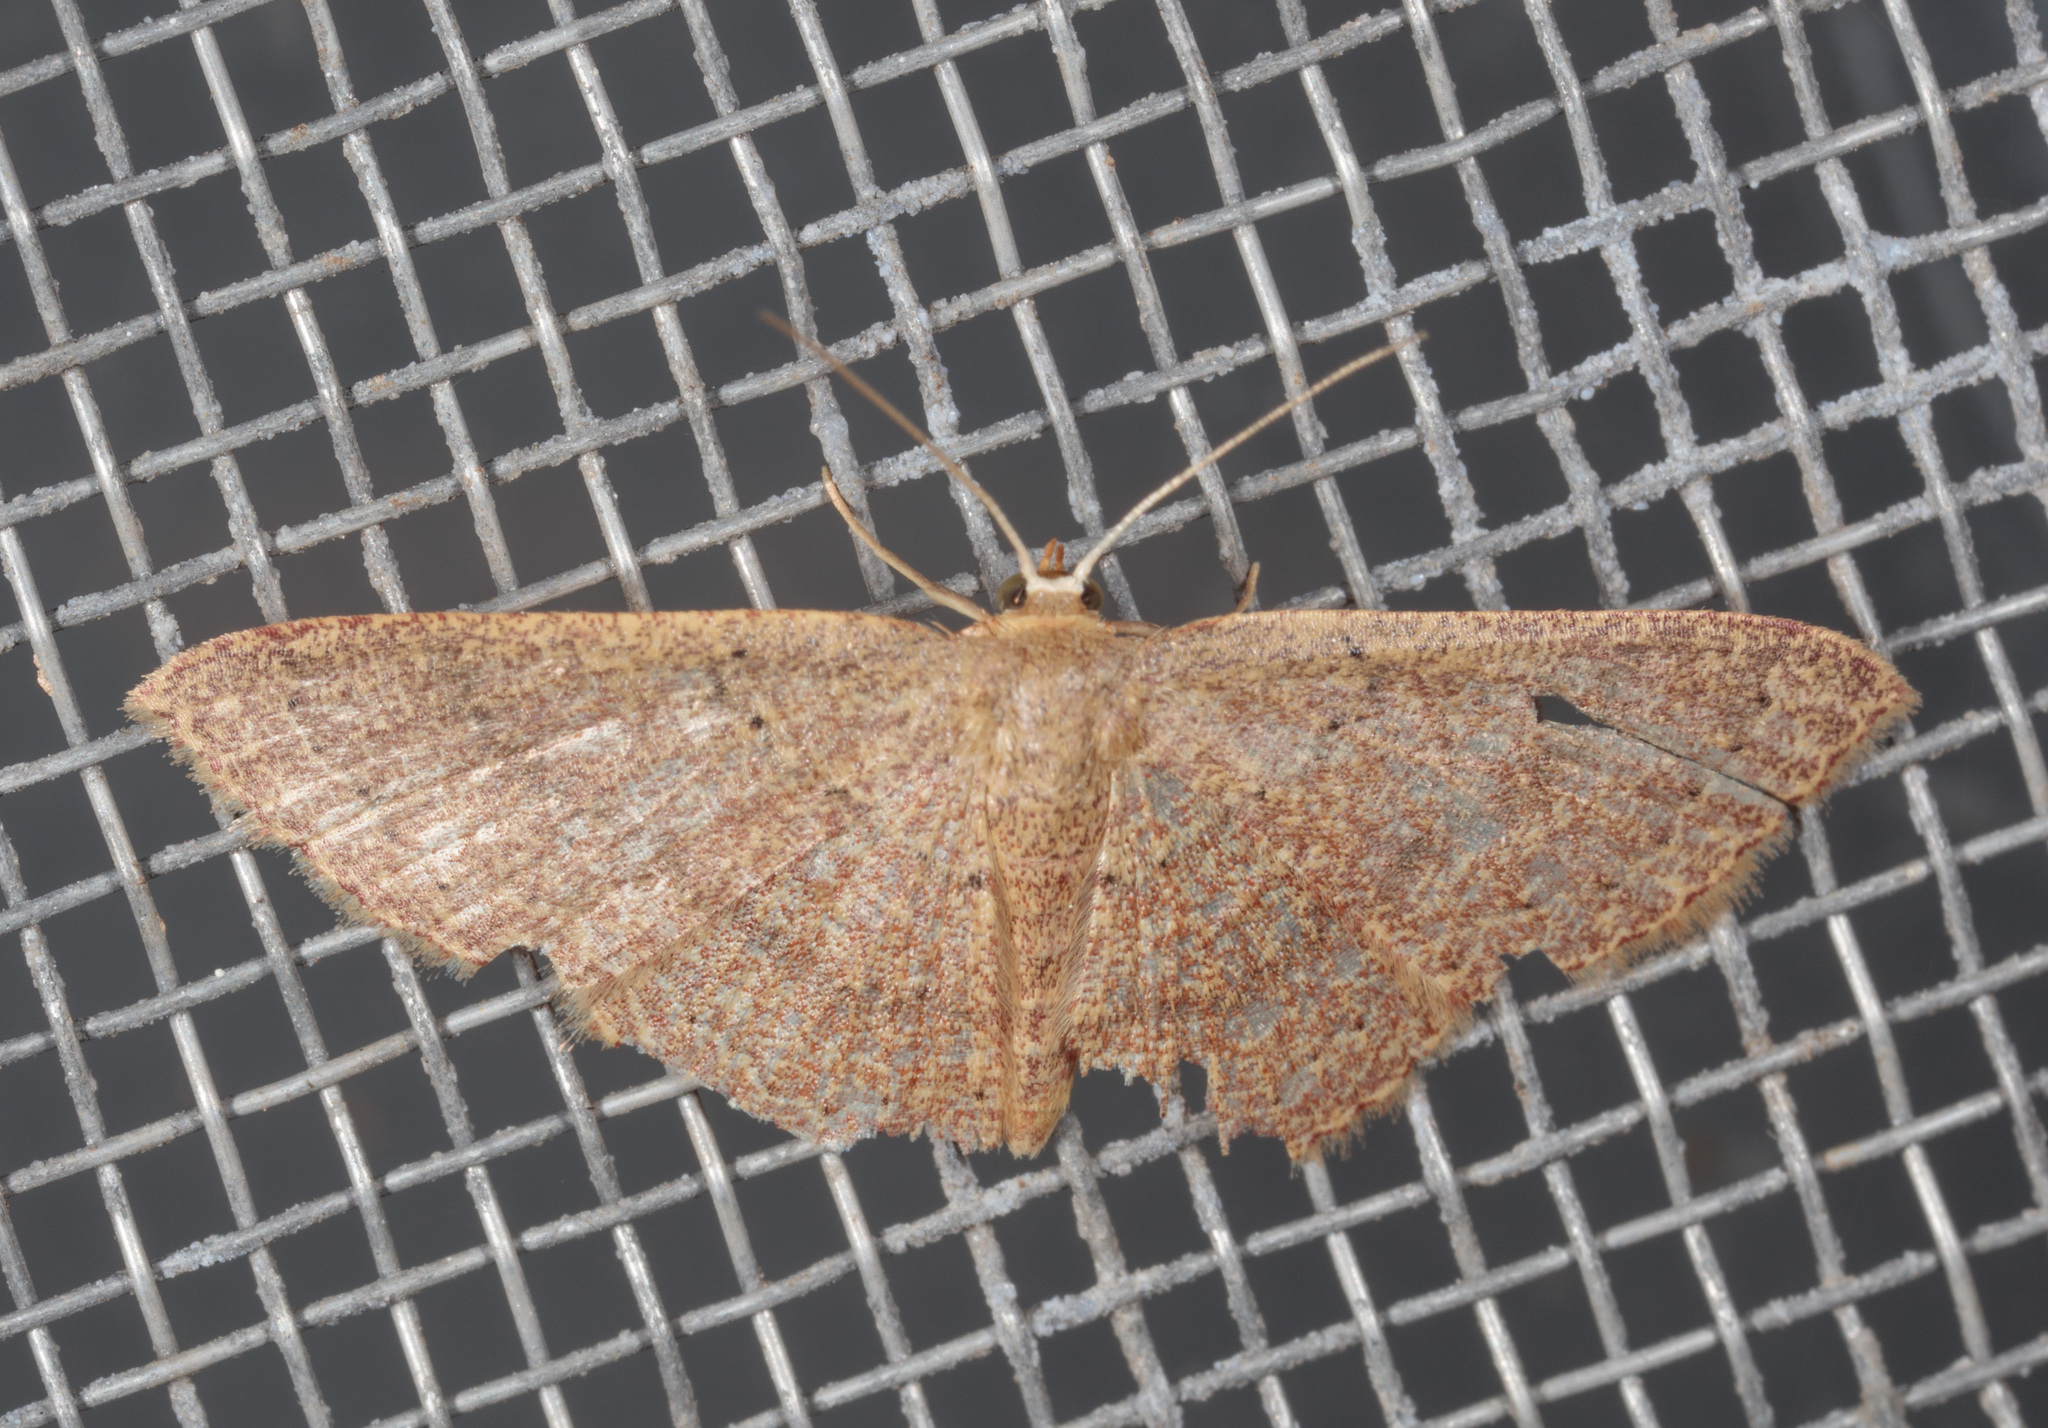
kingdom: Animalia
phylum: Arthropoda
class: Insecta
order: Lepidoptera
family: Geometridae
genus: Pleuroprucha
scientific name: Pleuroprucha insulsaria
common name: Common tan wave
